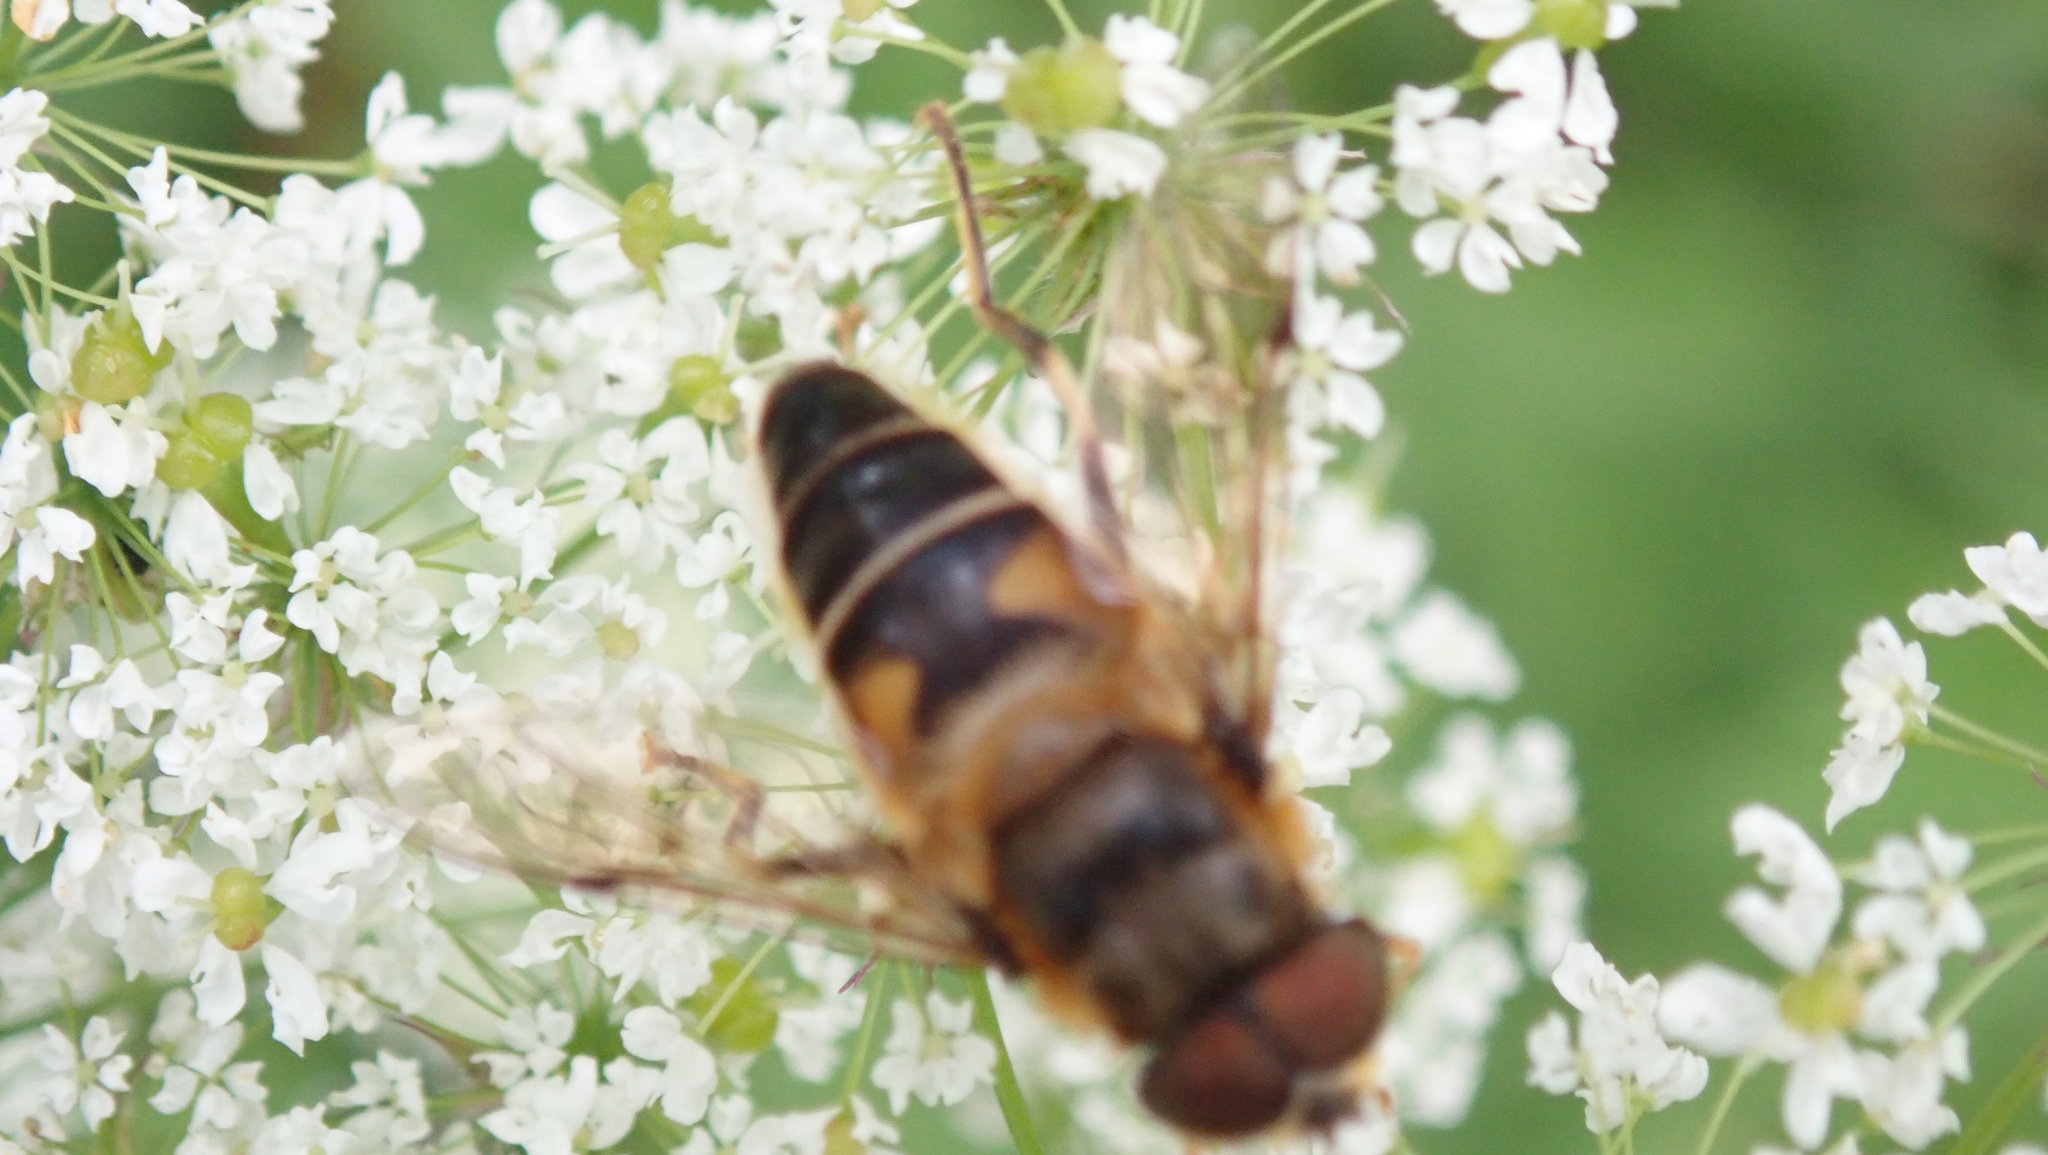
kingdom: Animalia
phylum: Arthropoda
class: Insecta
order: Diptera
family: Syrphidae
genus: Eristalis
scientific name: Eristalis pertinax
